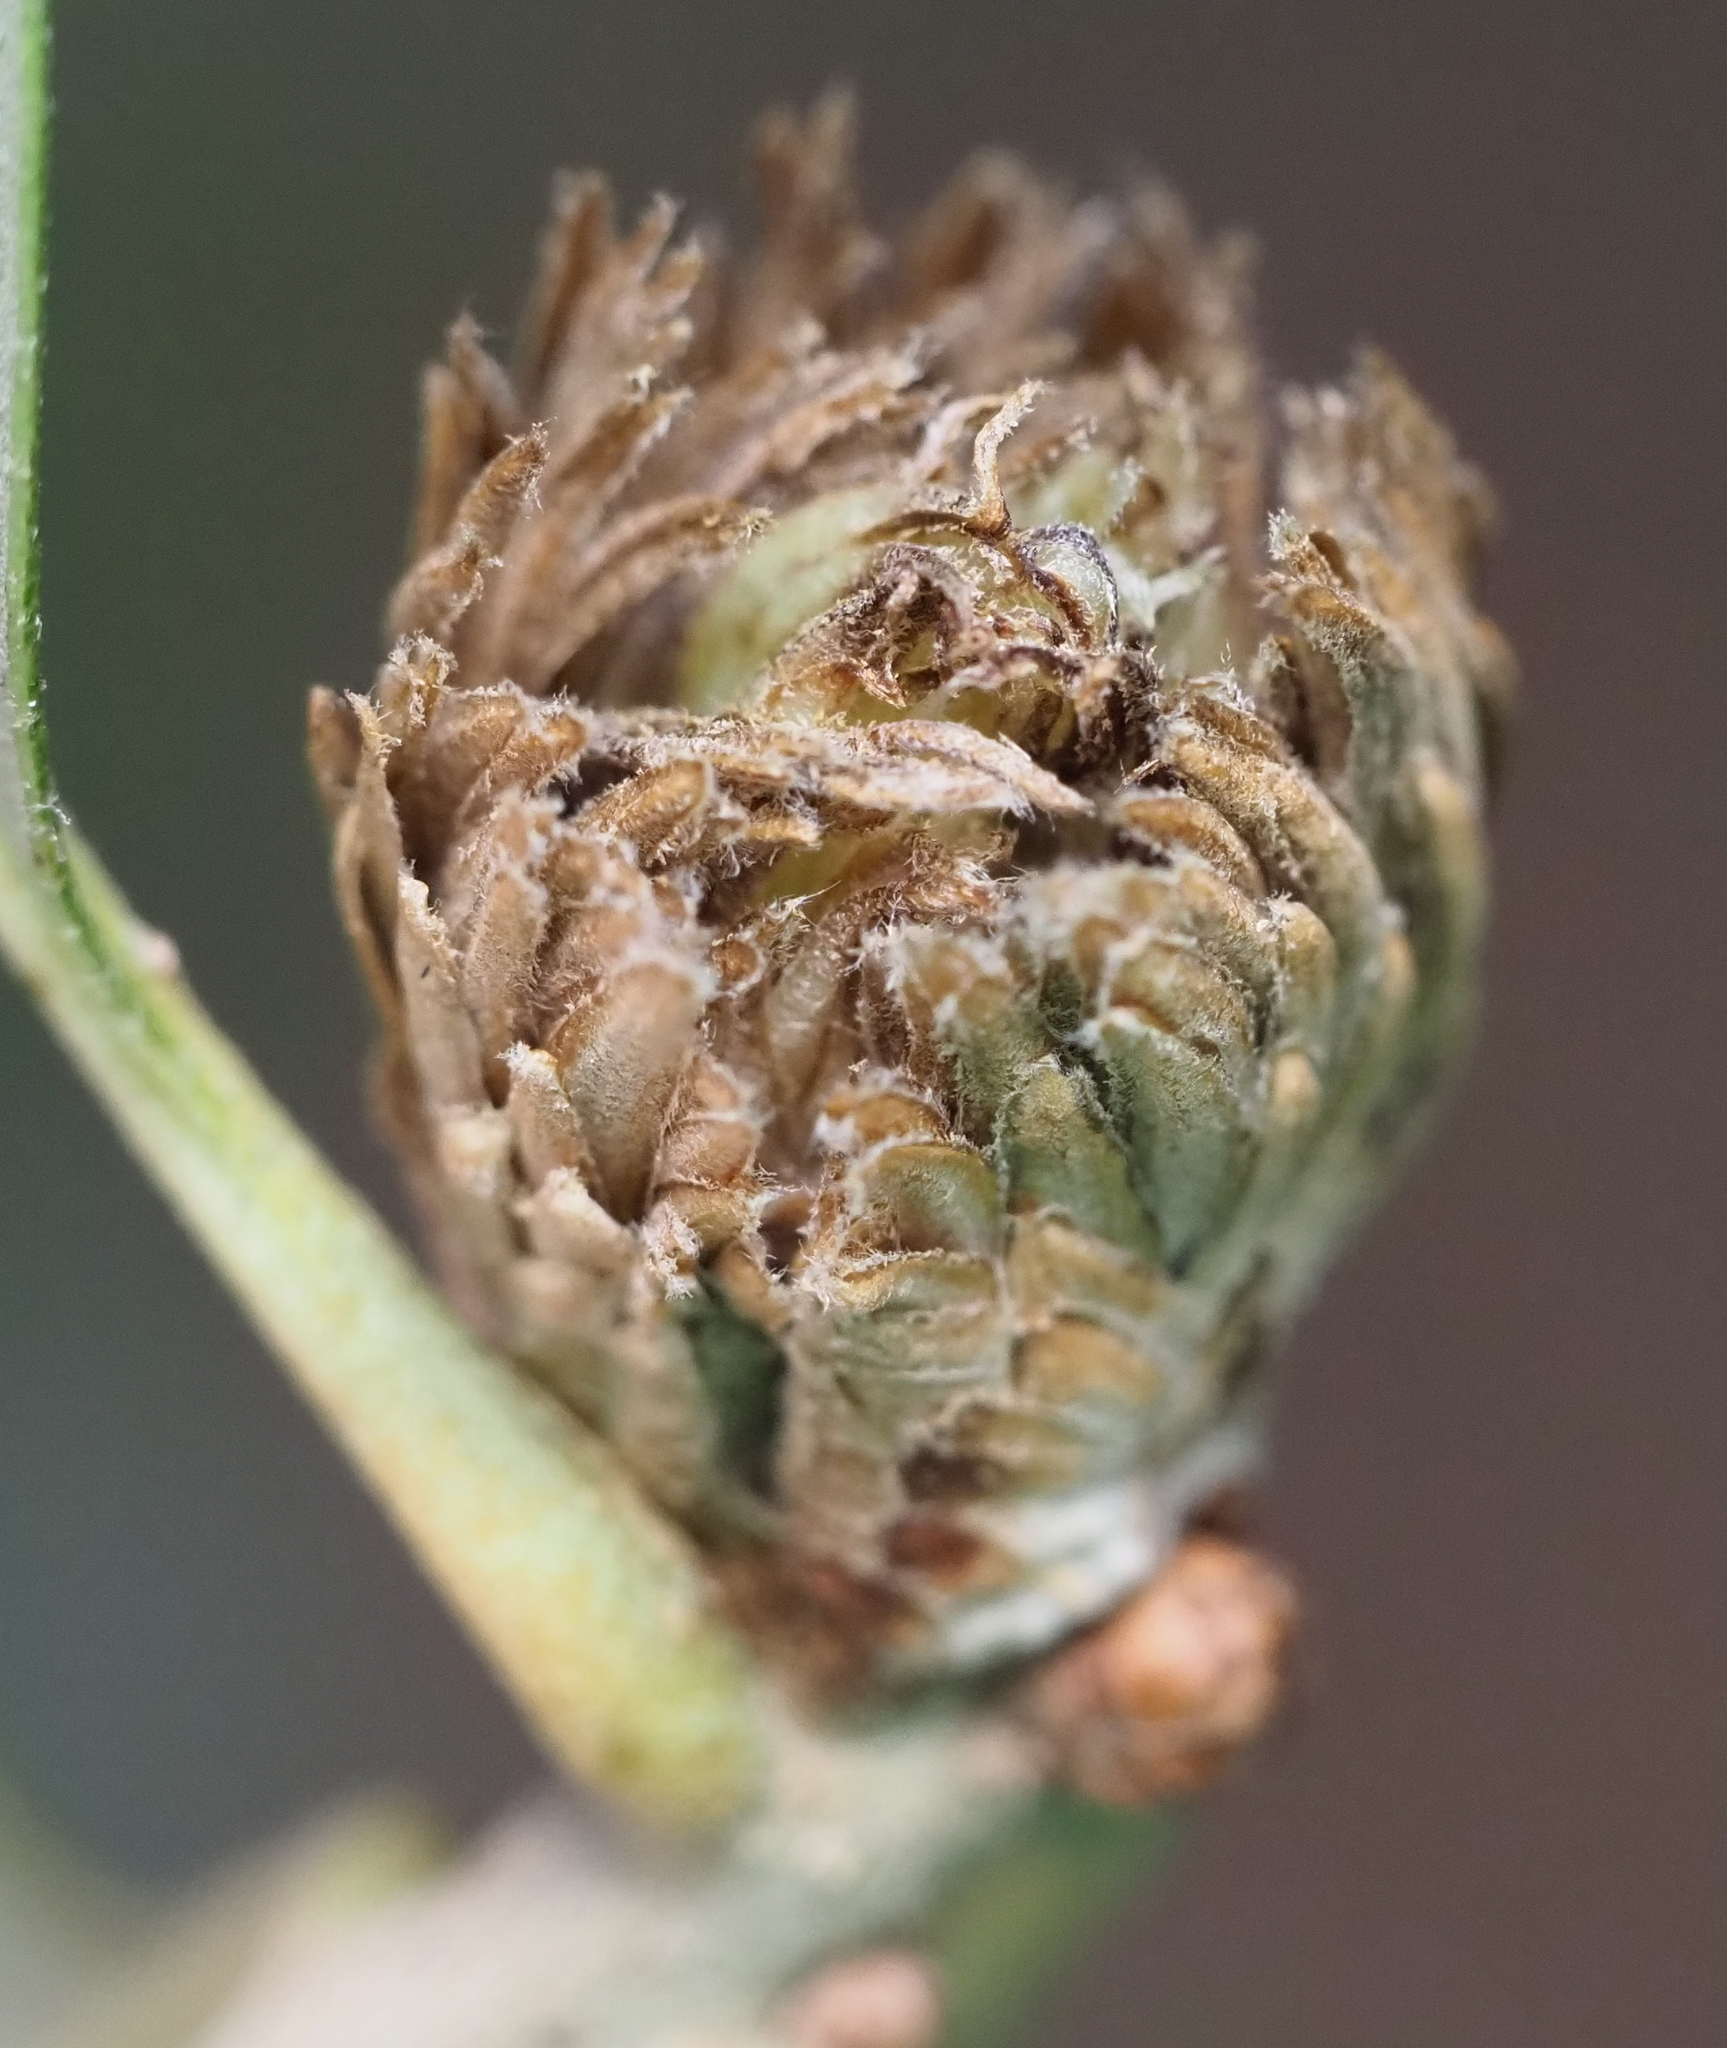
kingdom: Animalia
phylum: Arthropoda
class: Insecta
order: Hymenoptera
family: Cynipidae
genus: Andricus
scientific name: Andricus quercusfoliatus
